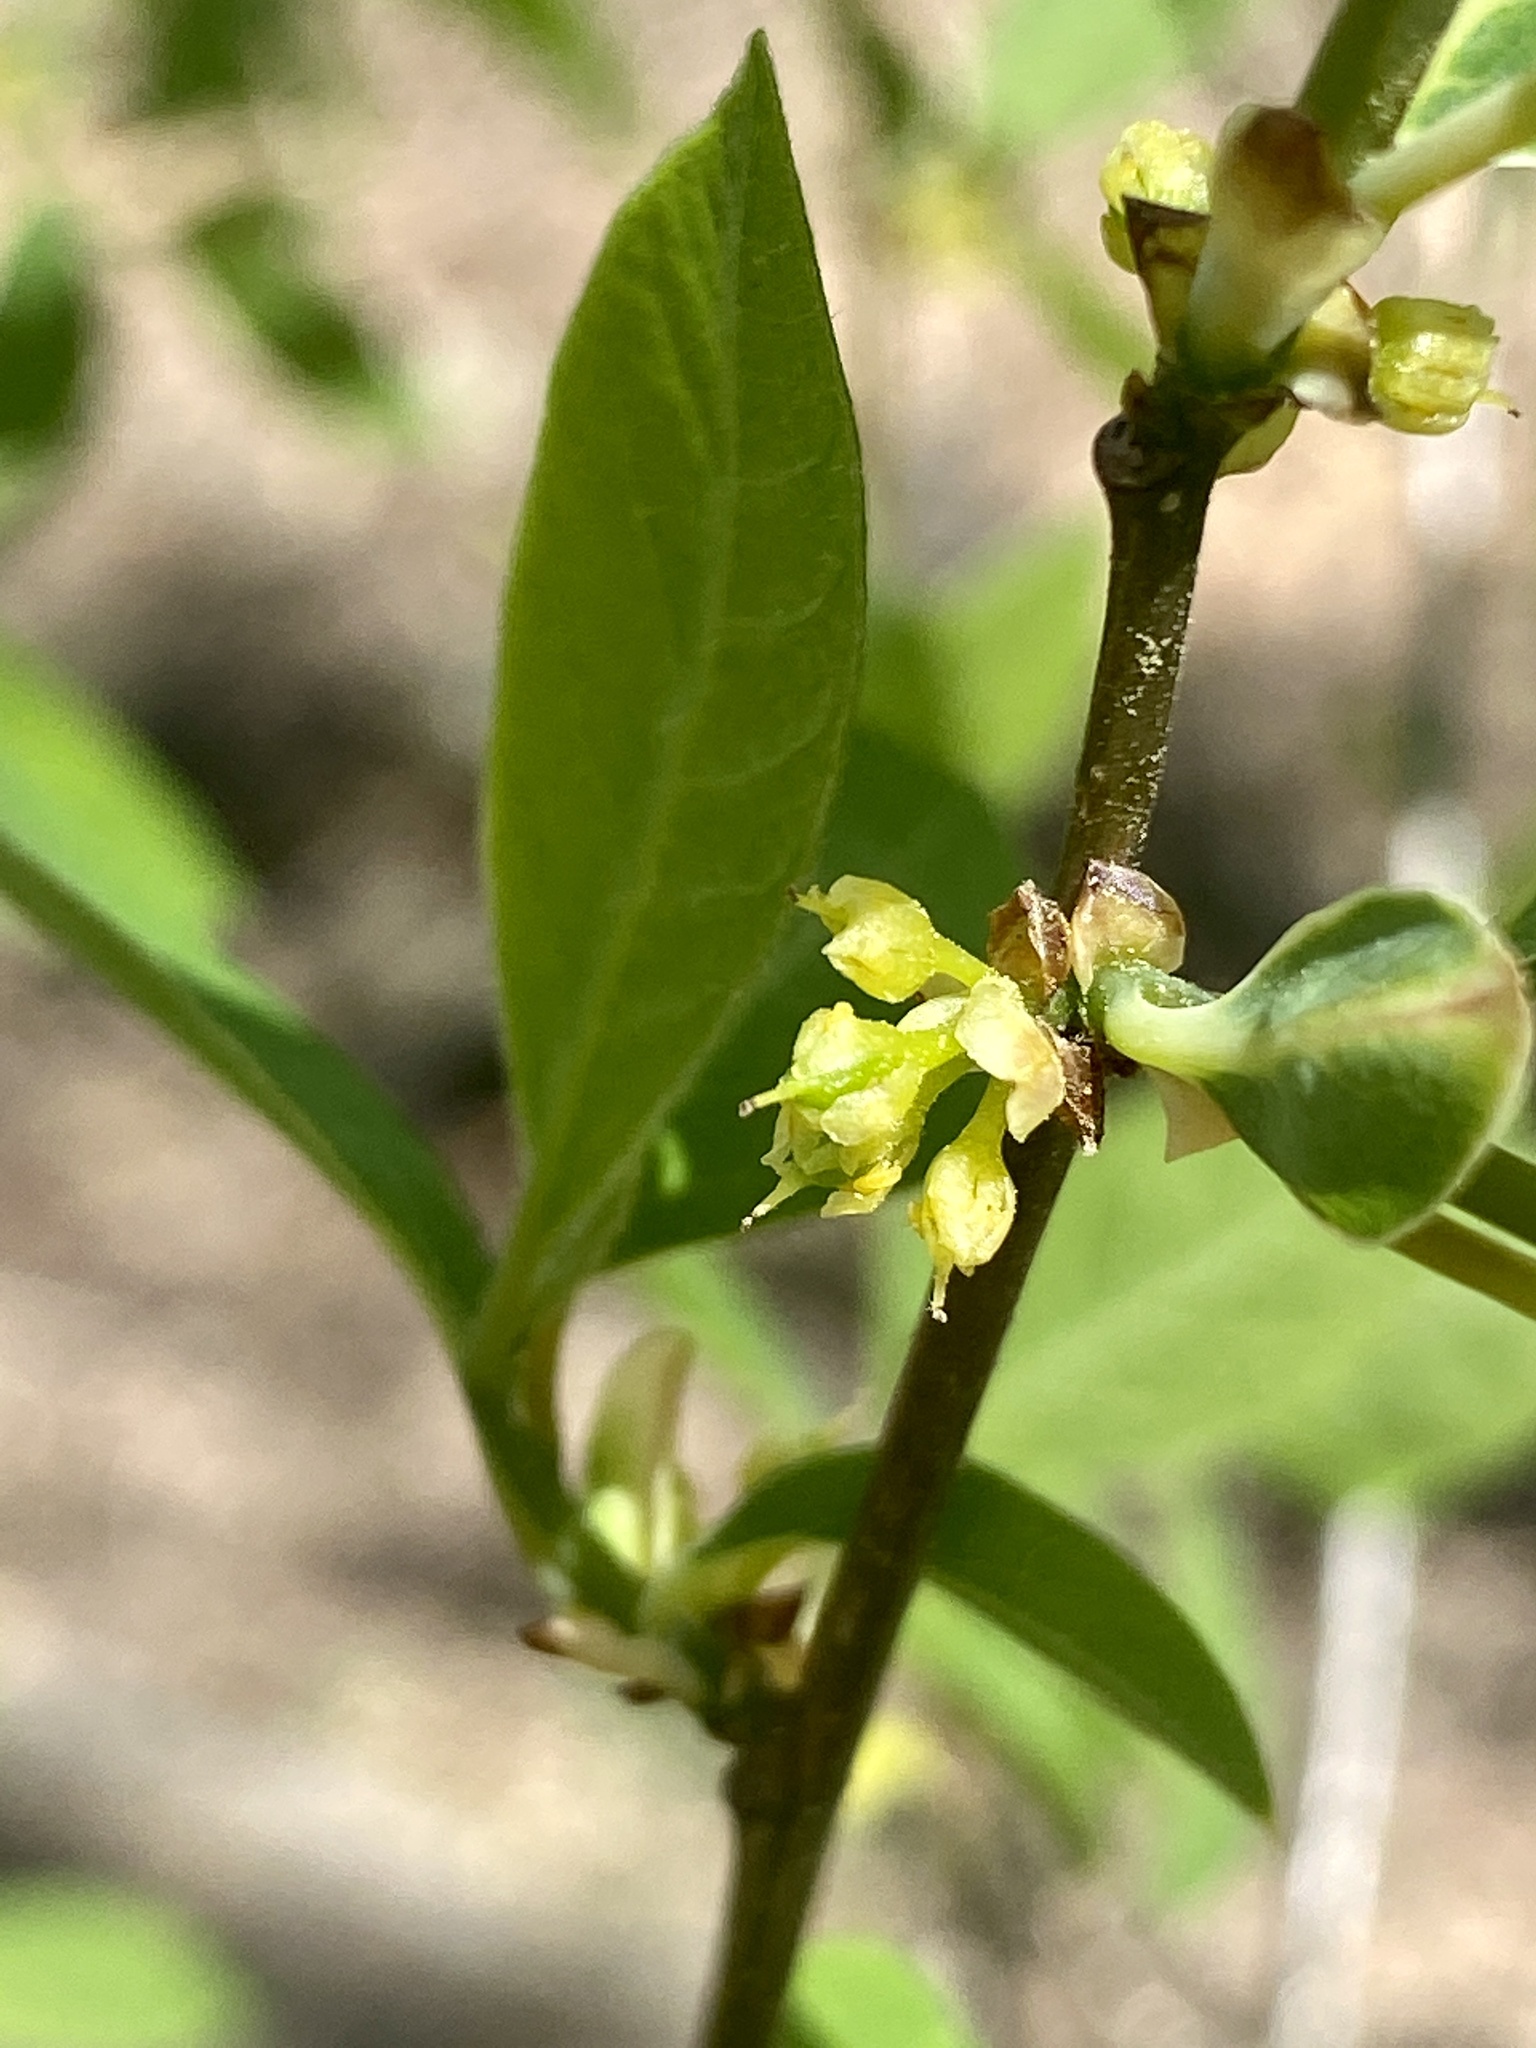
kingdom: Plantae
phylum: Tracheophyta
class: Magnoliopsida
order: Laurales
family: Lauraceae
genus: Lindera
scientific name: Lindera benzoin
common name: Spicebush
